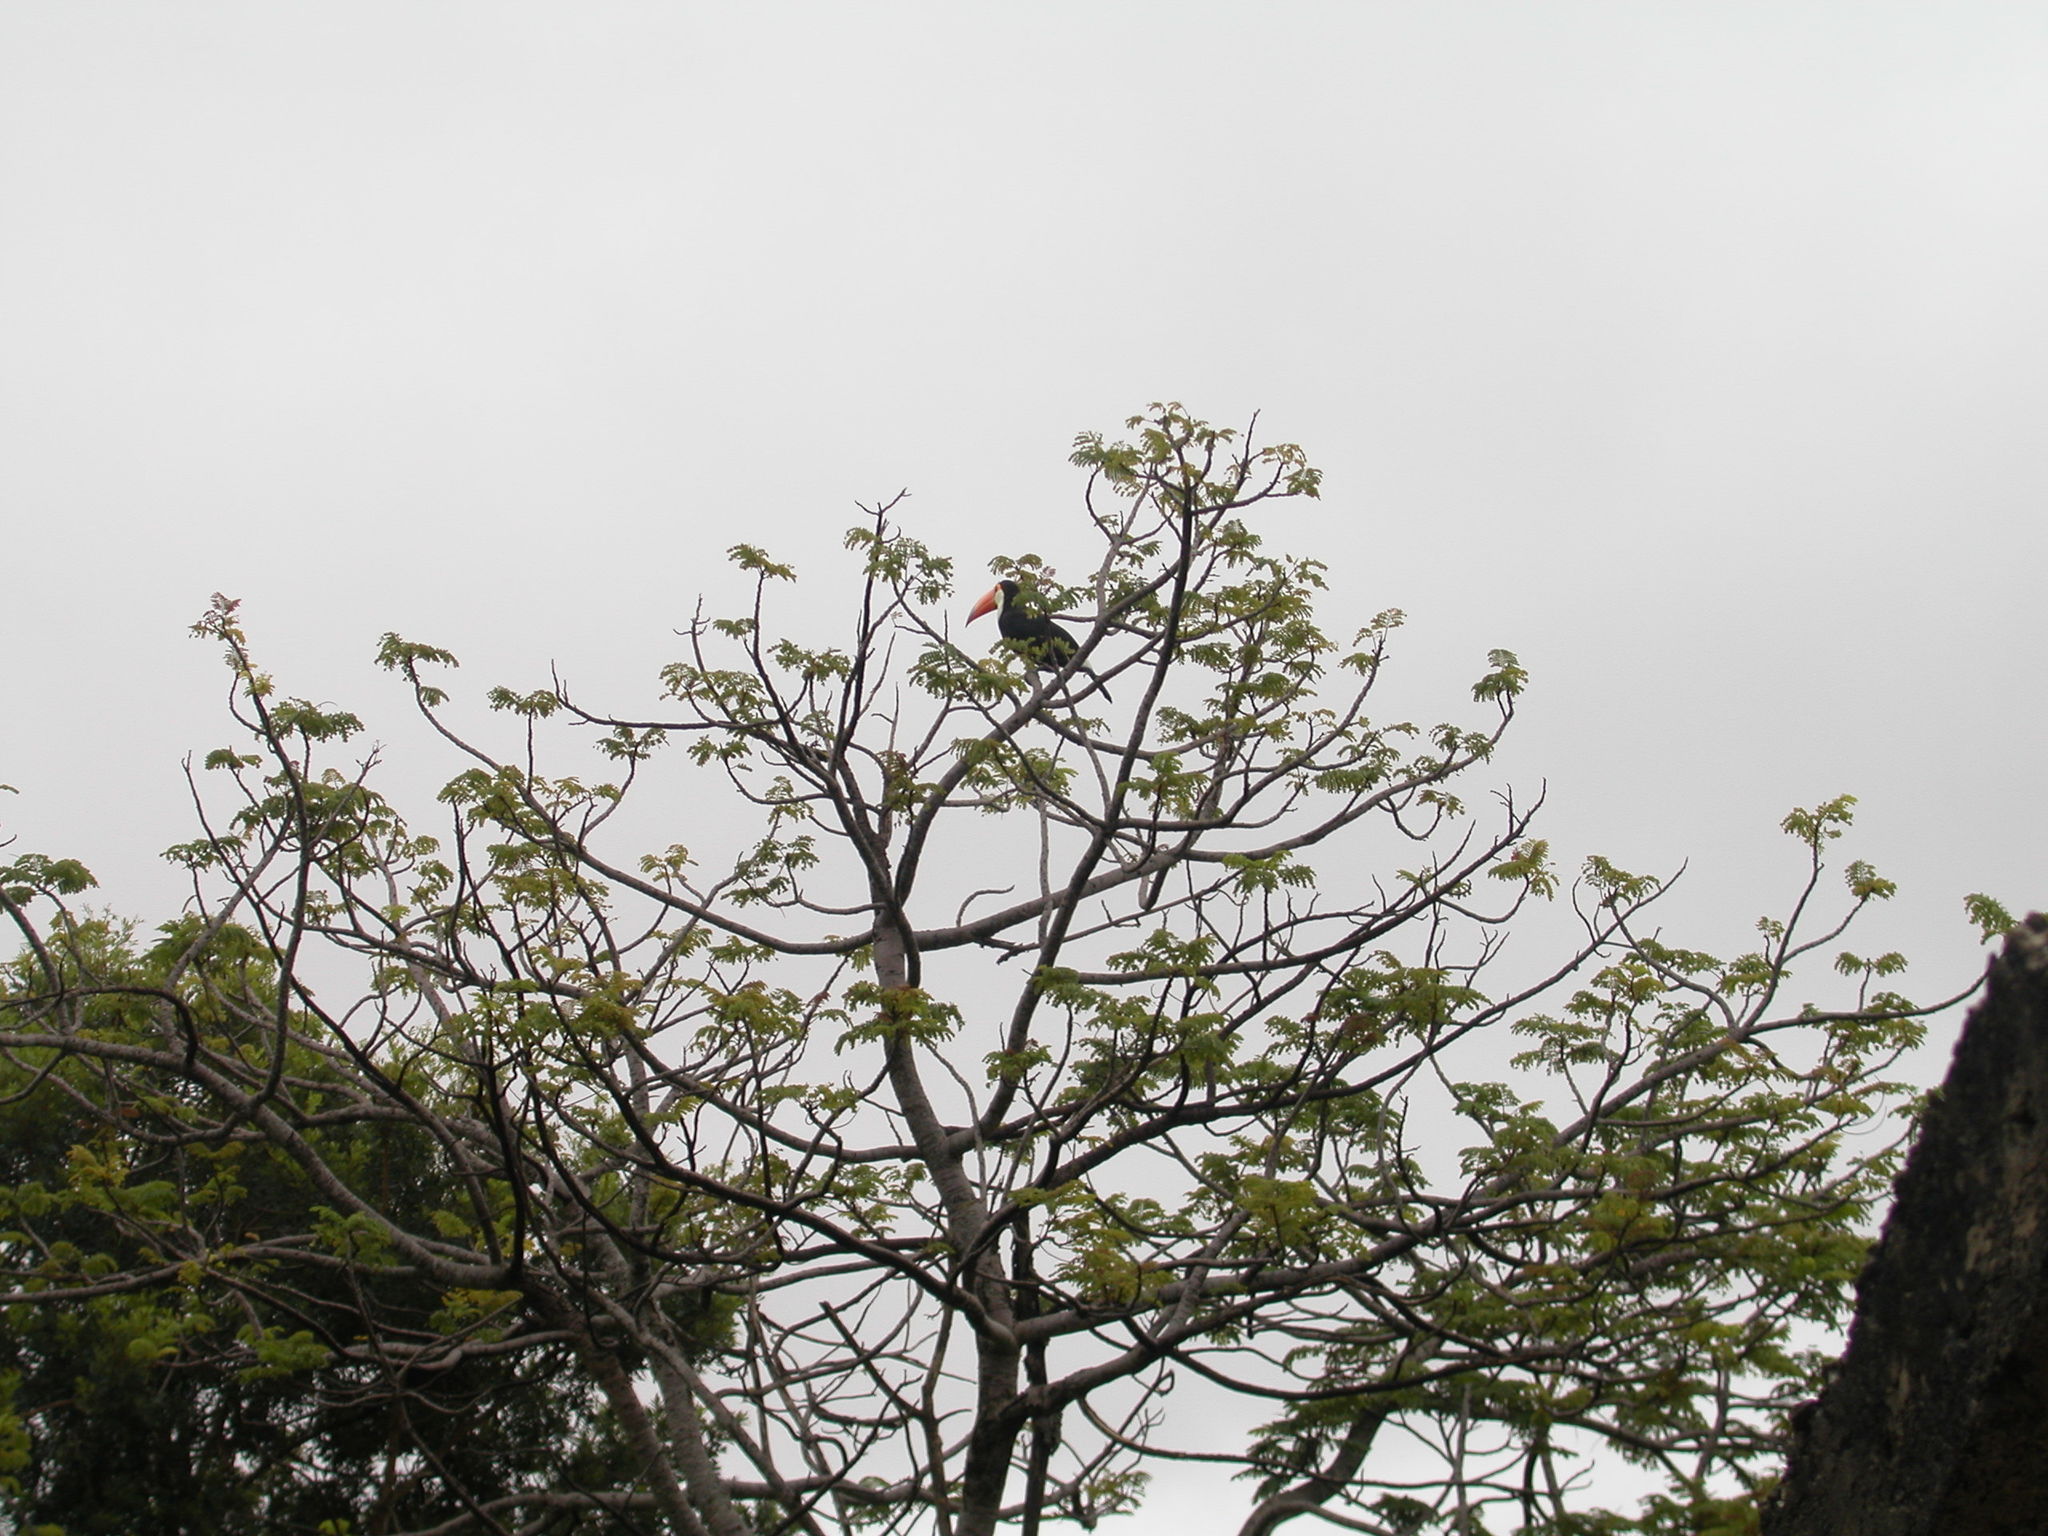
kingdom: Animalia
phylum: Chordata
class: Aves
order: Piciformes
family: Ramphastidae
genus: Ramphastos
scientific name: Ramphastos toco
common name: Toco toucan
